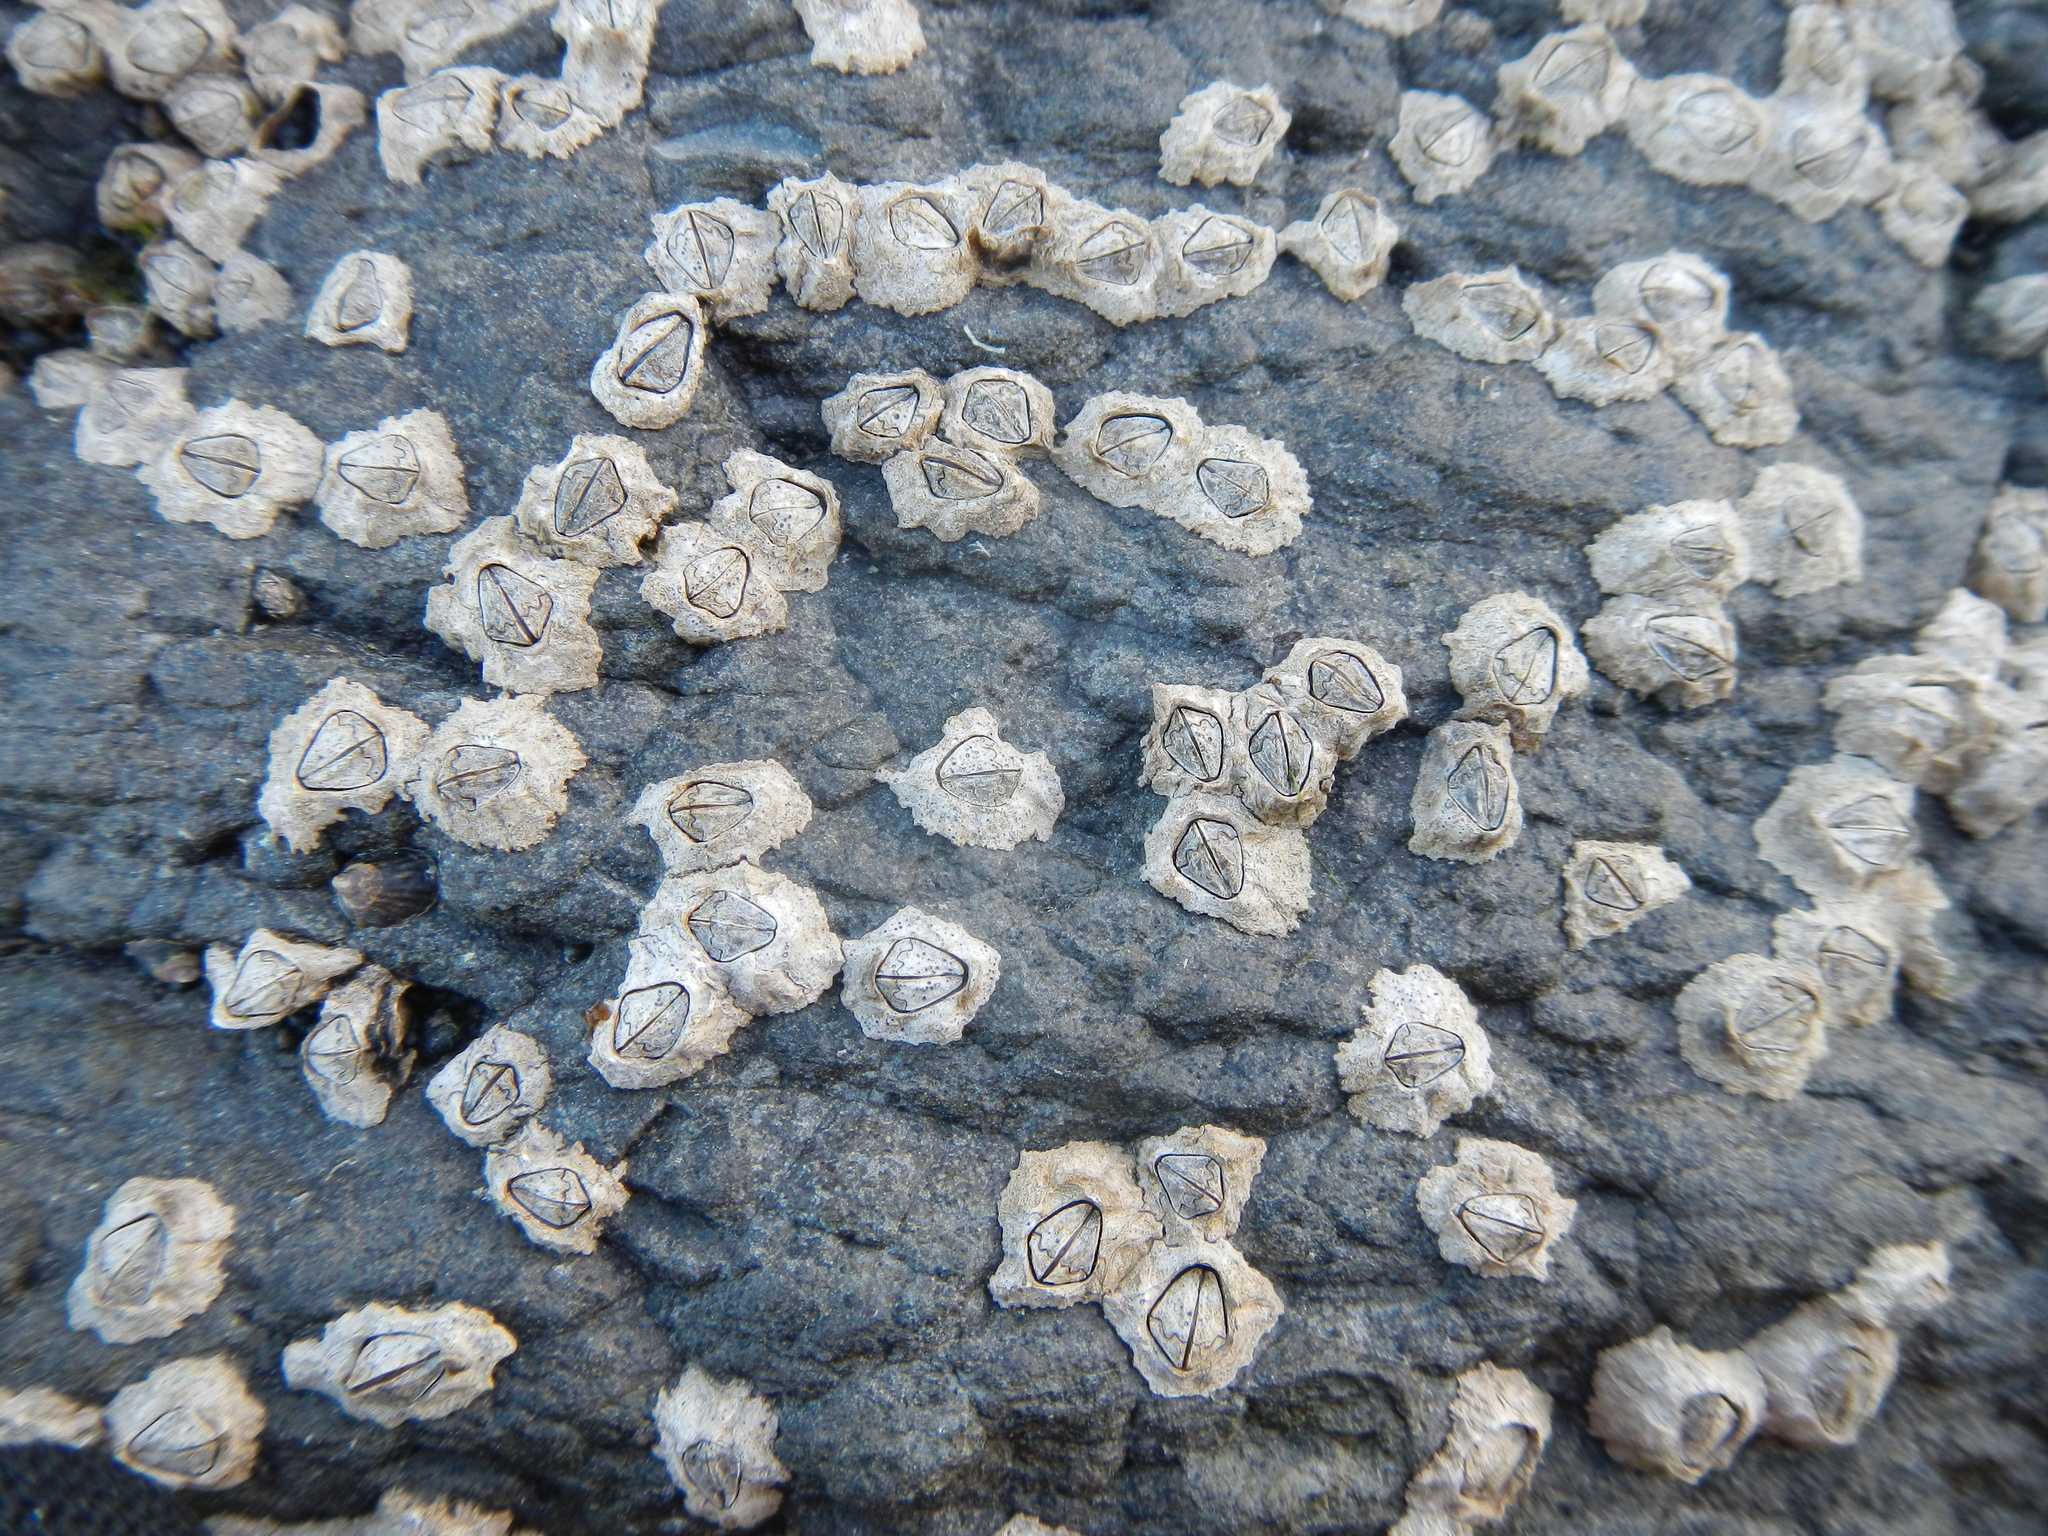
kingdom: Animalia
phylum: Arthropoda
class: Maxillopoda
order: Sessilia
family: Chthamalidae
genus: Notochthamalus
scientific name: Notochthamalus scabrosus
